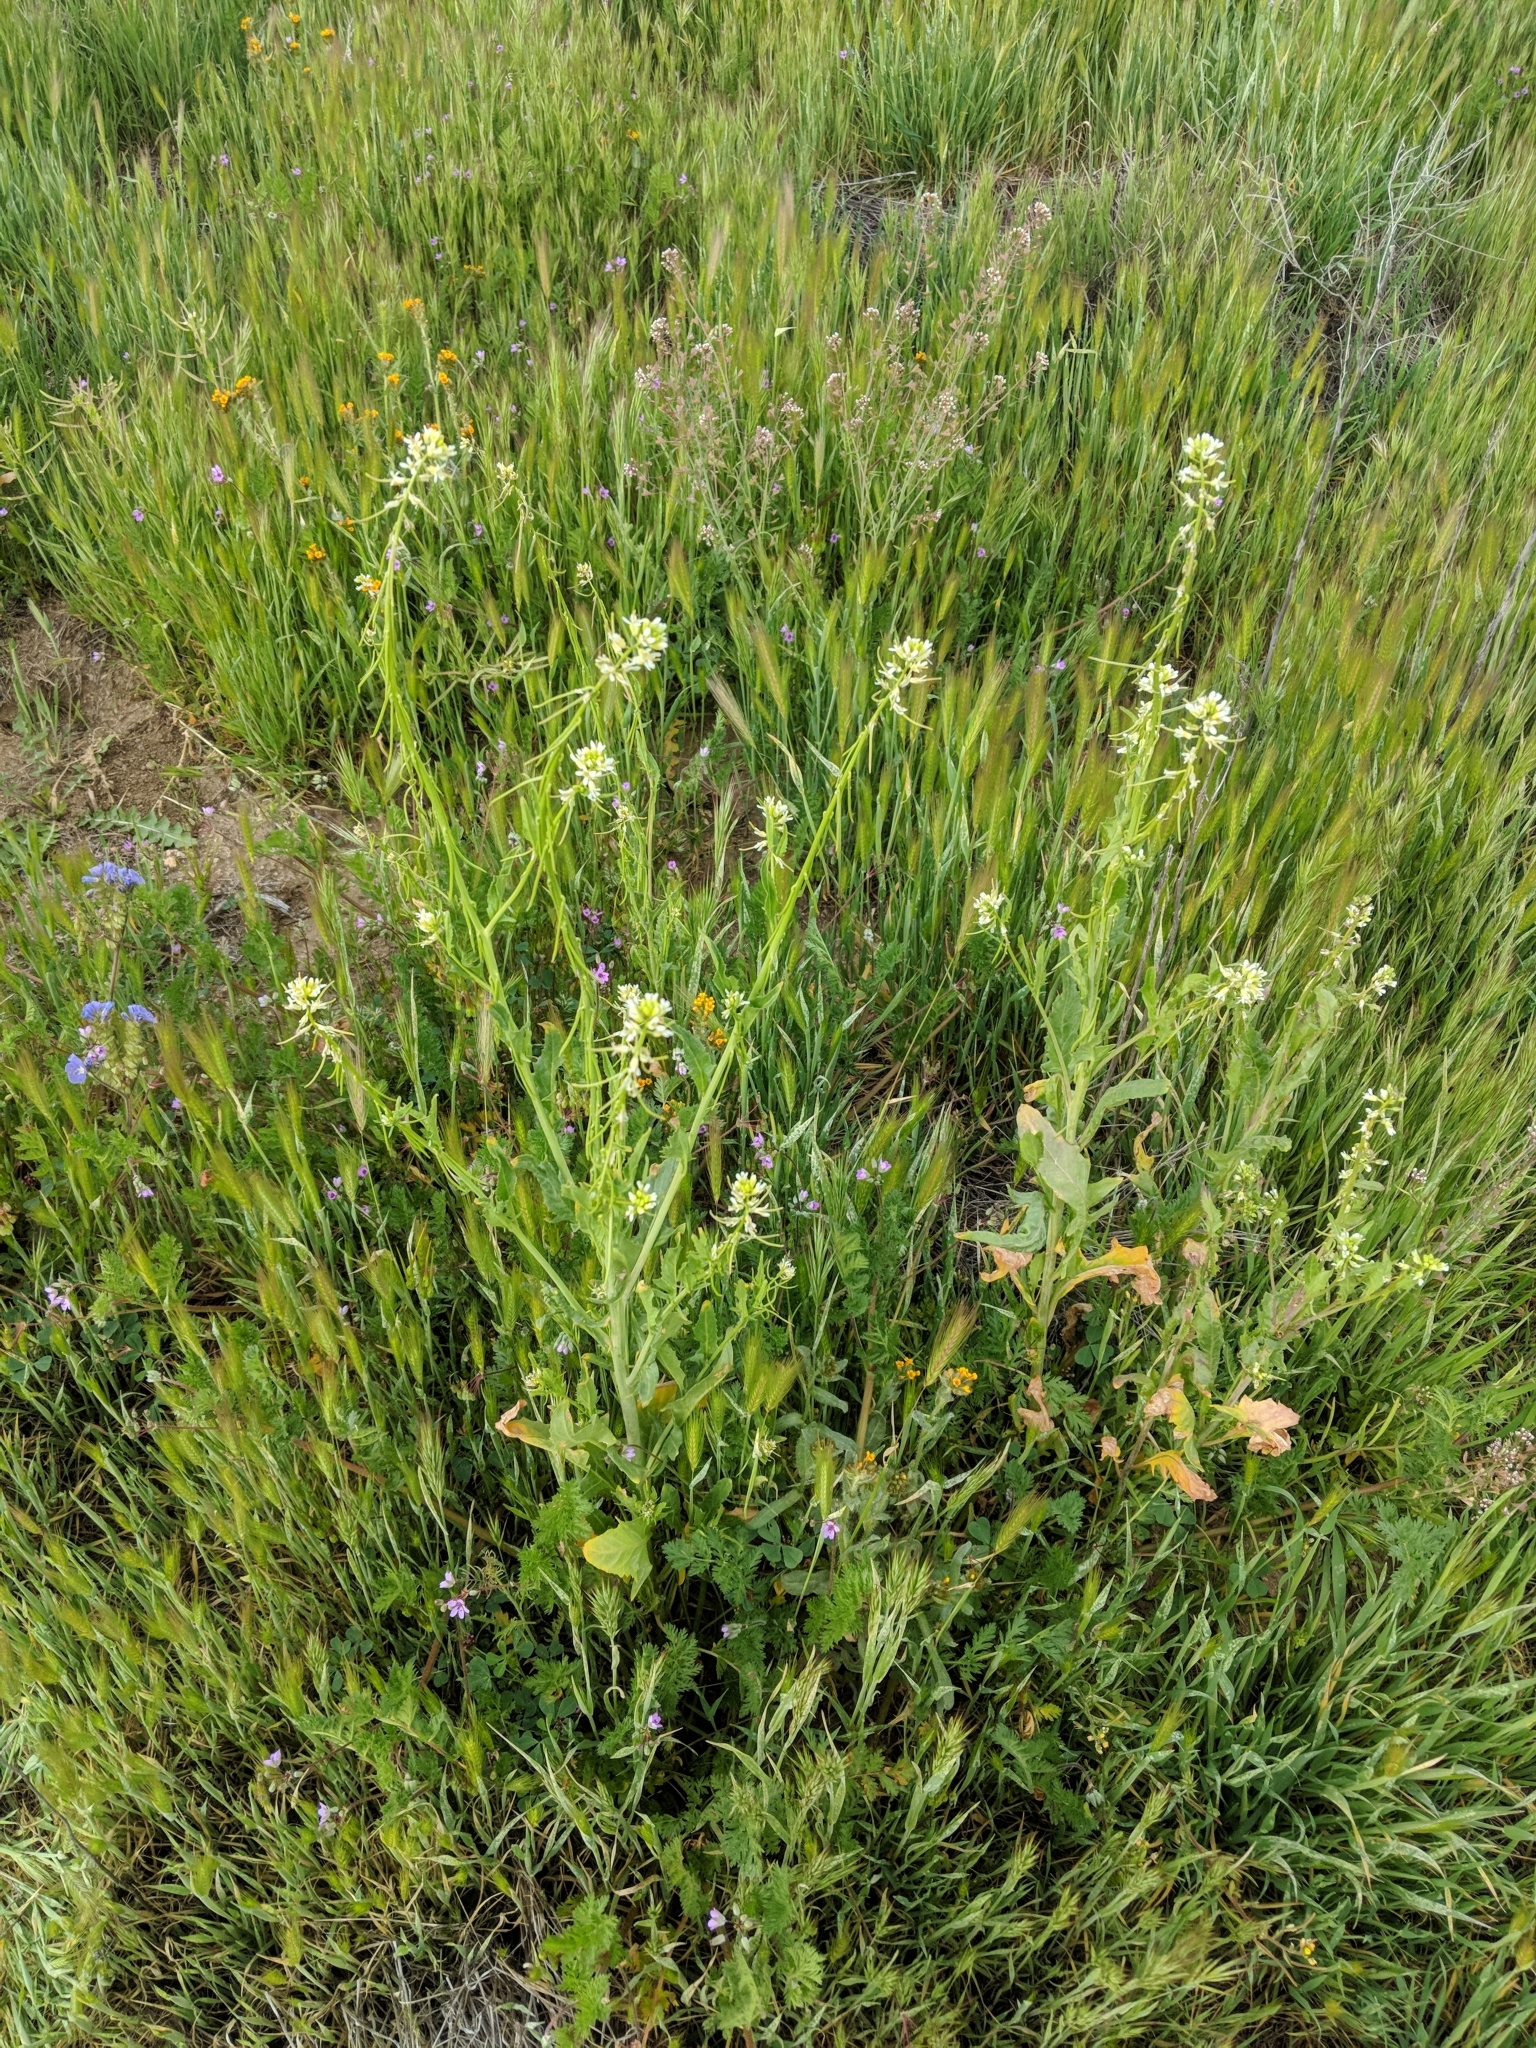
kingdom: Plantae
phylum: Tracheophyta
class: Magnoliopsida
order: Brassicales
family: Brassicaceae
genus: Streptanthus
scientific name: Streptanthus lasiophyllus
